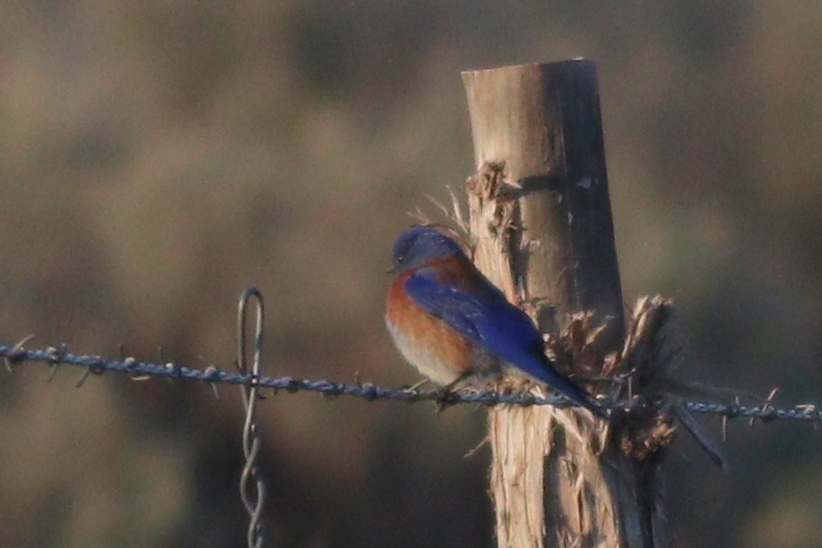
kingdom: Animalia
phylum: Chordata
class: Aves
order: Passeriformes
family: Turdidae
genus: Sialia
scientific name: Sialia mexicana
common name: Western bluebird
